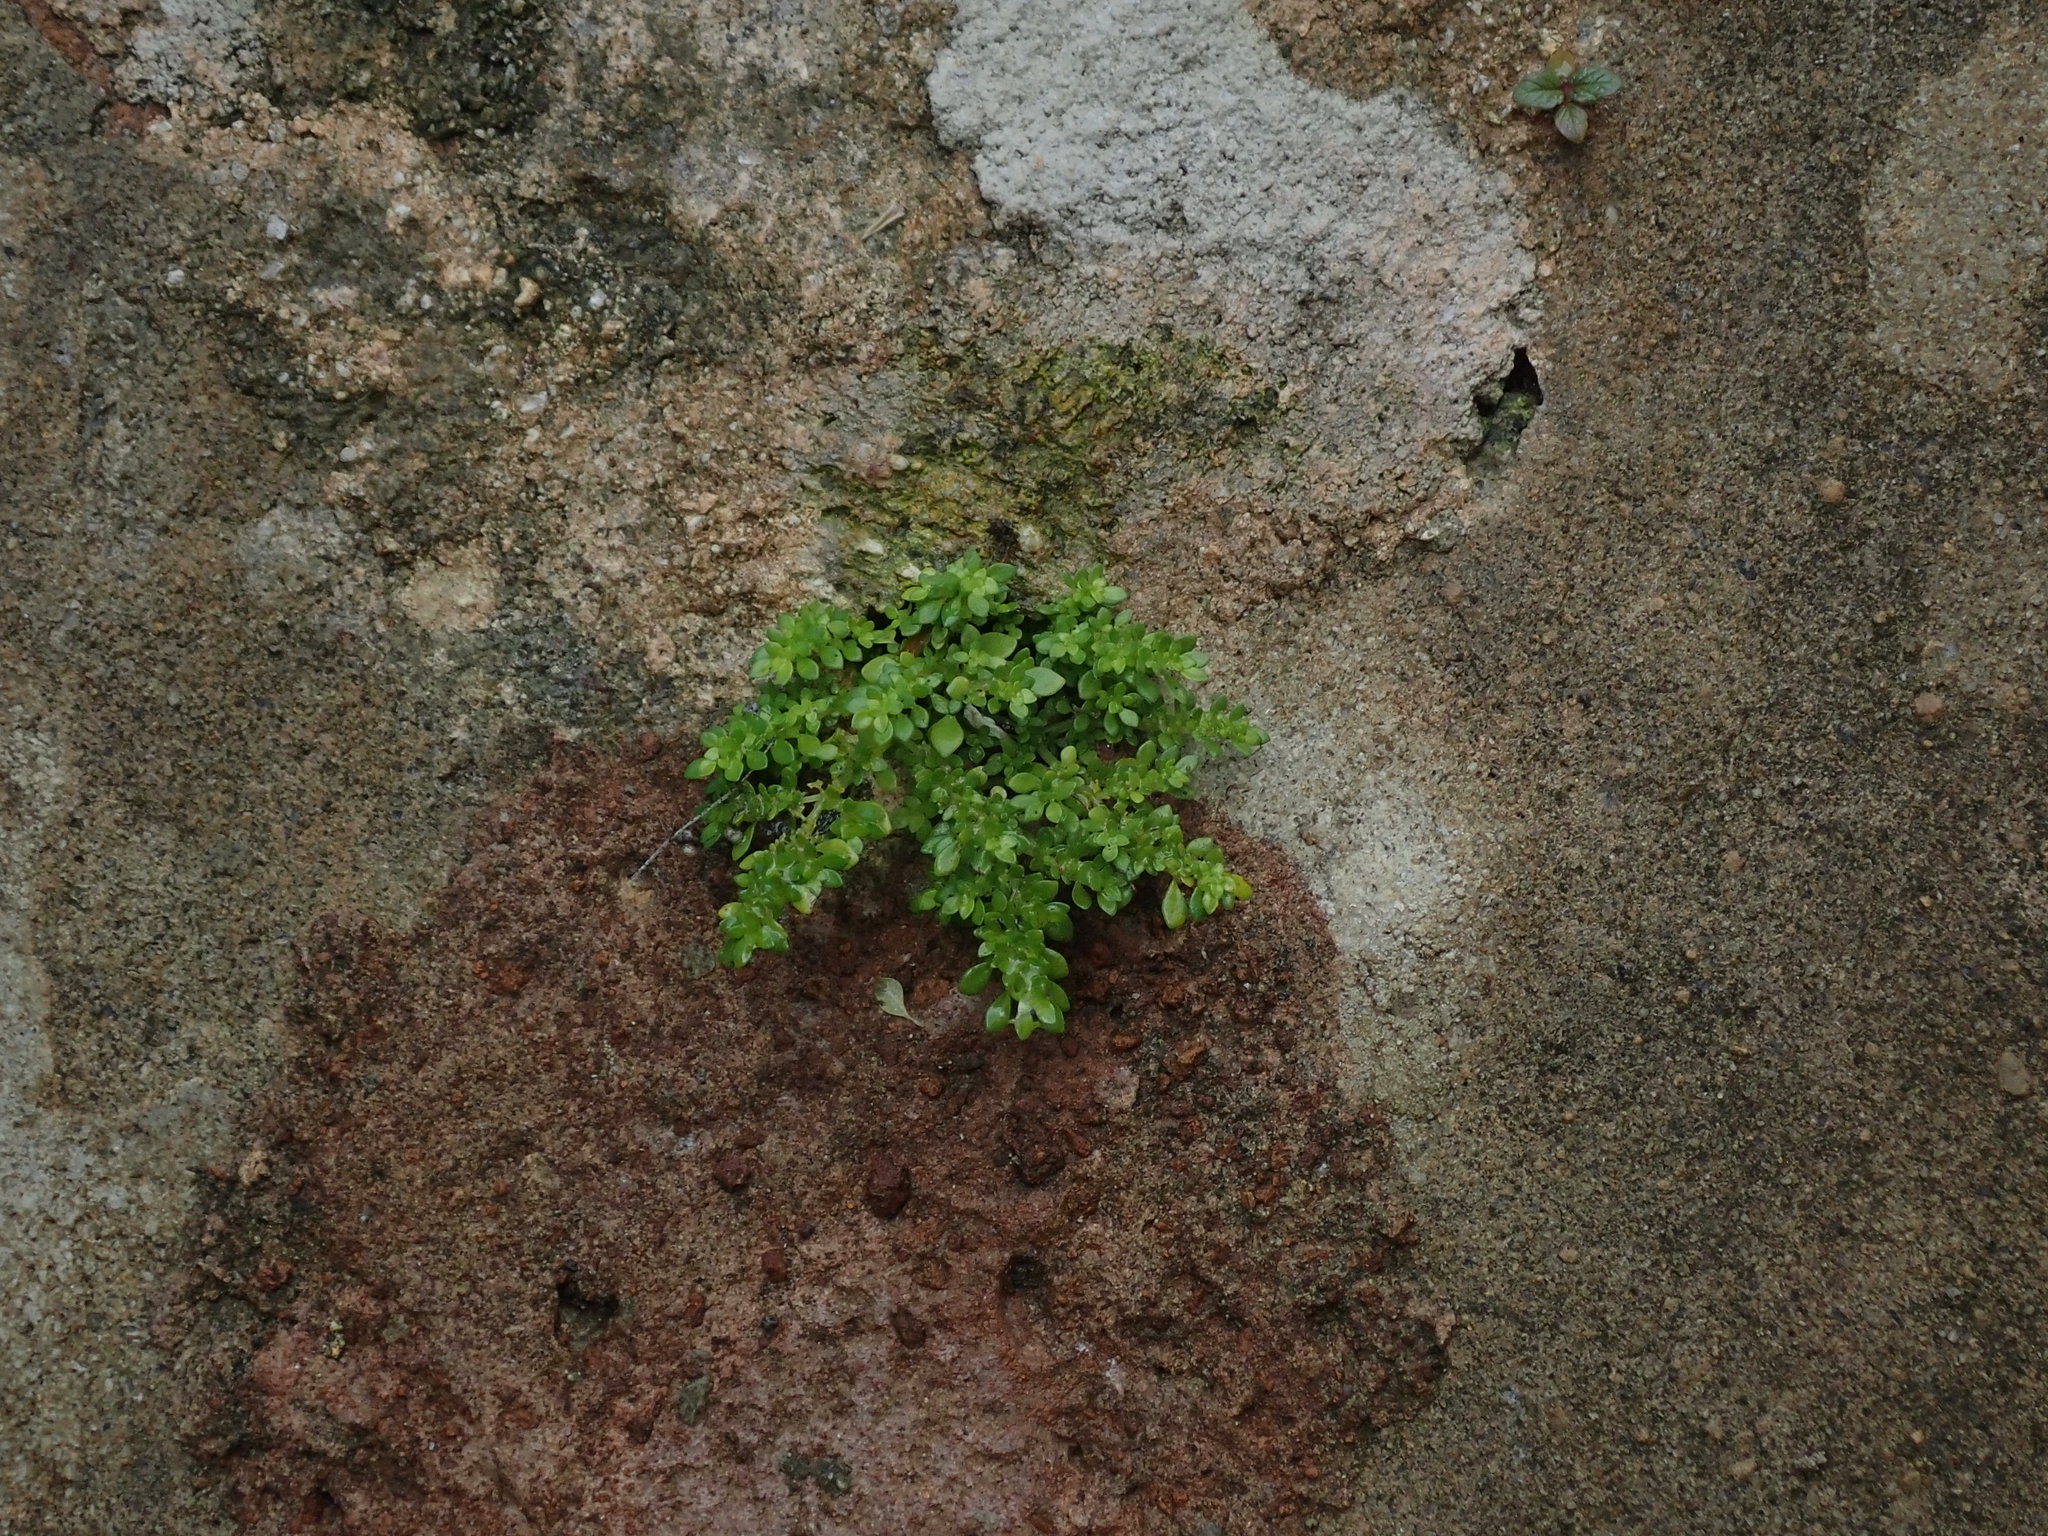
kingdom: Plantae
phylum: Tracheophyta
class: Magnoliopsida
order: Rosales
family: Urticaceae
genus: Pilea
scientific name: Pilea microphylla
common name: Artillery-plant
